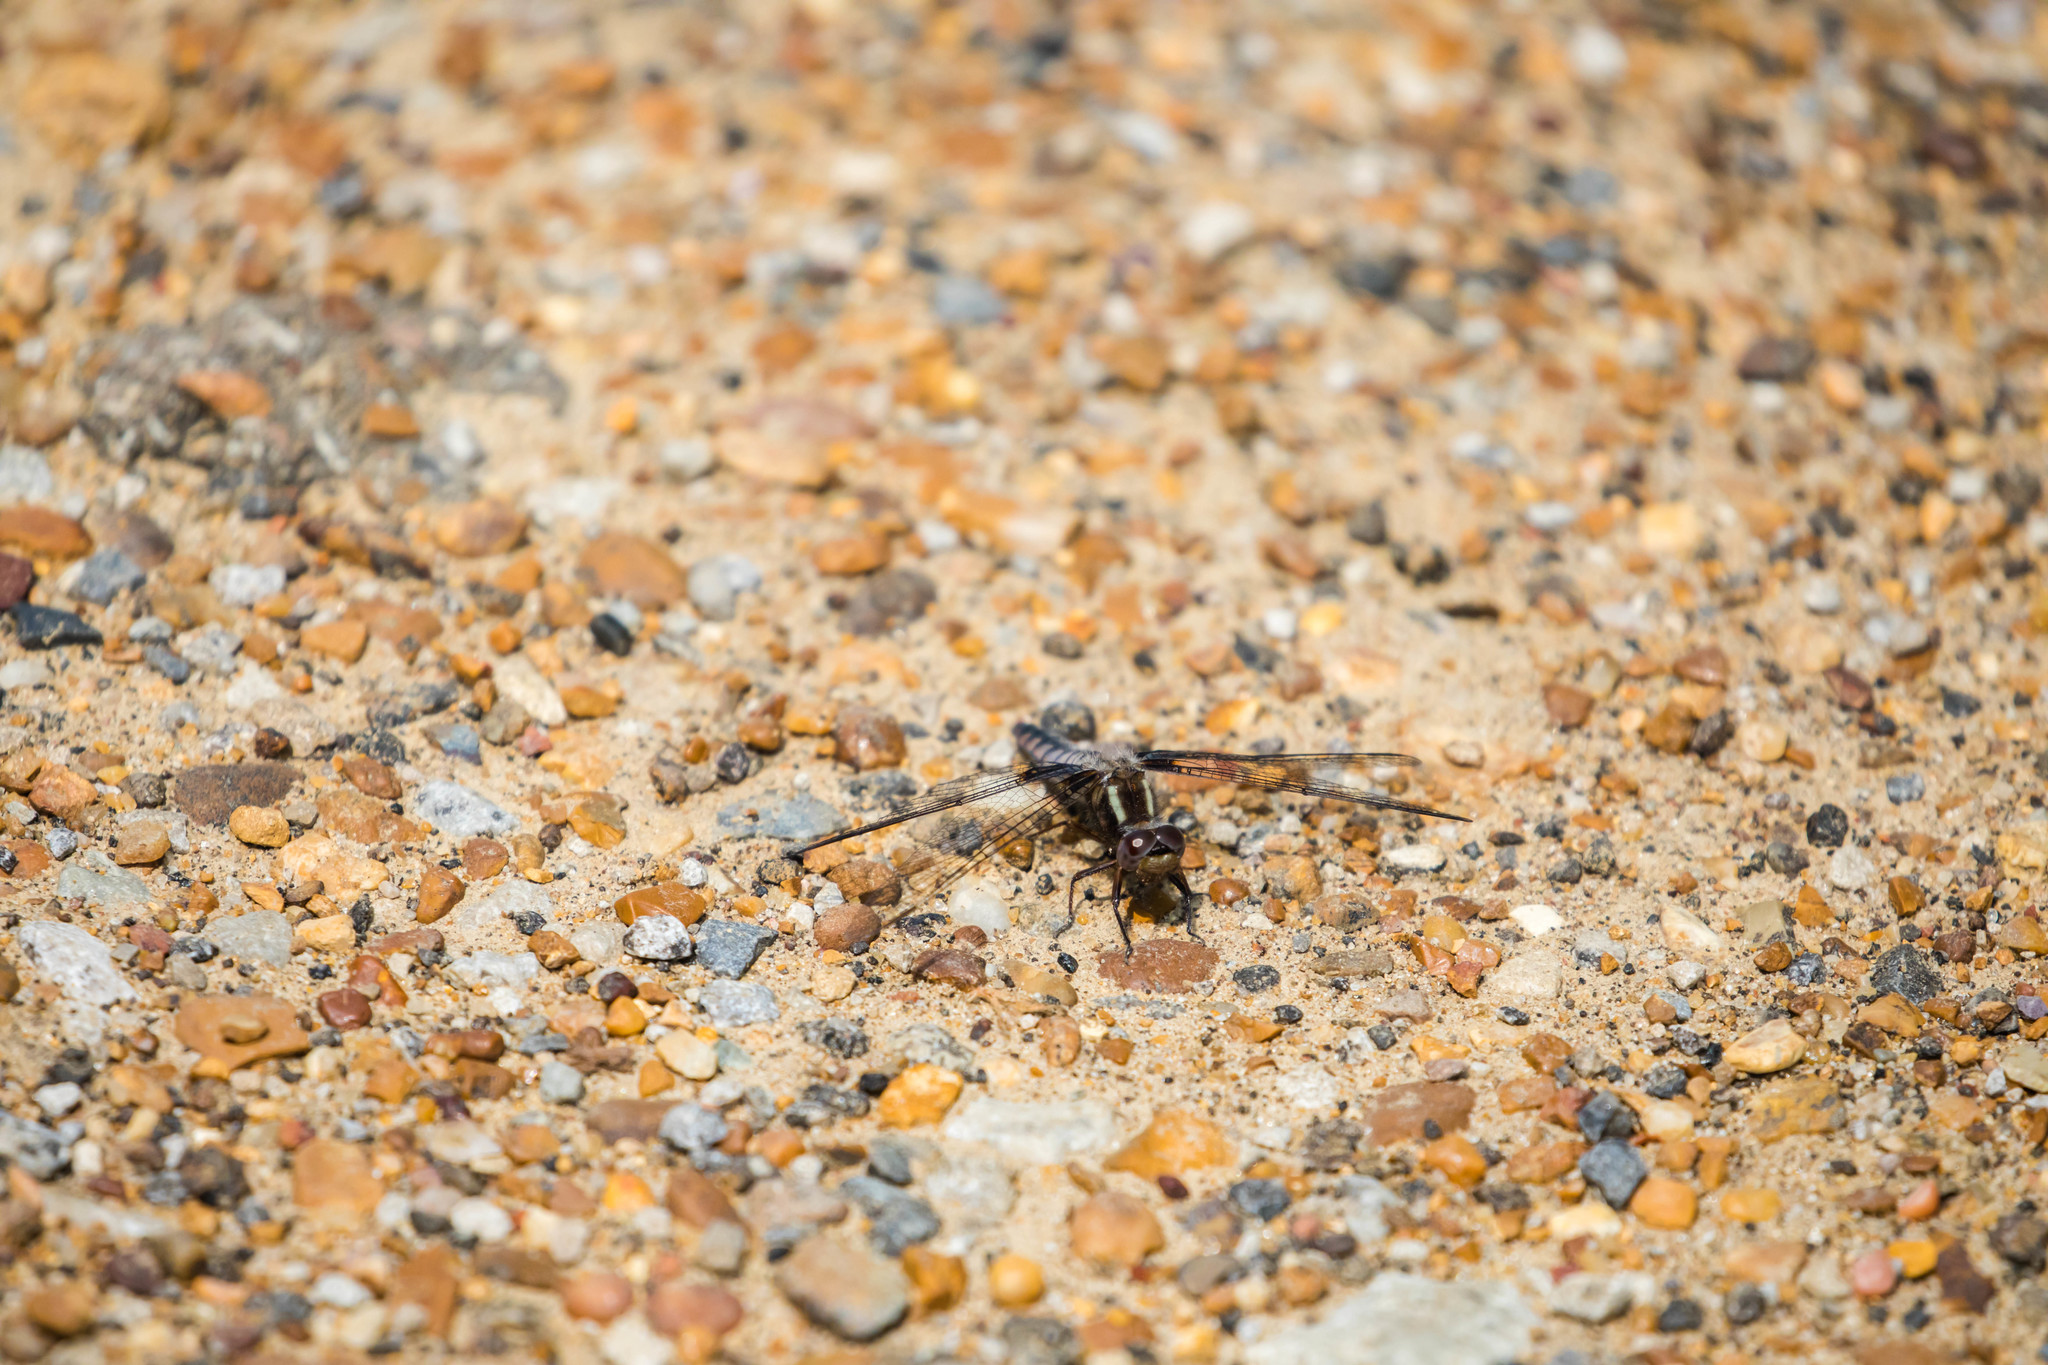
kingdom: Animalia
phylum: Arthropoda
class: Insecta
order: Odonata
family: Libellulidae
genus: Ladona
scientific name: Ladona deplanata
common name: Blue corporal
